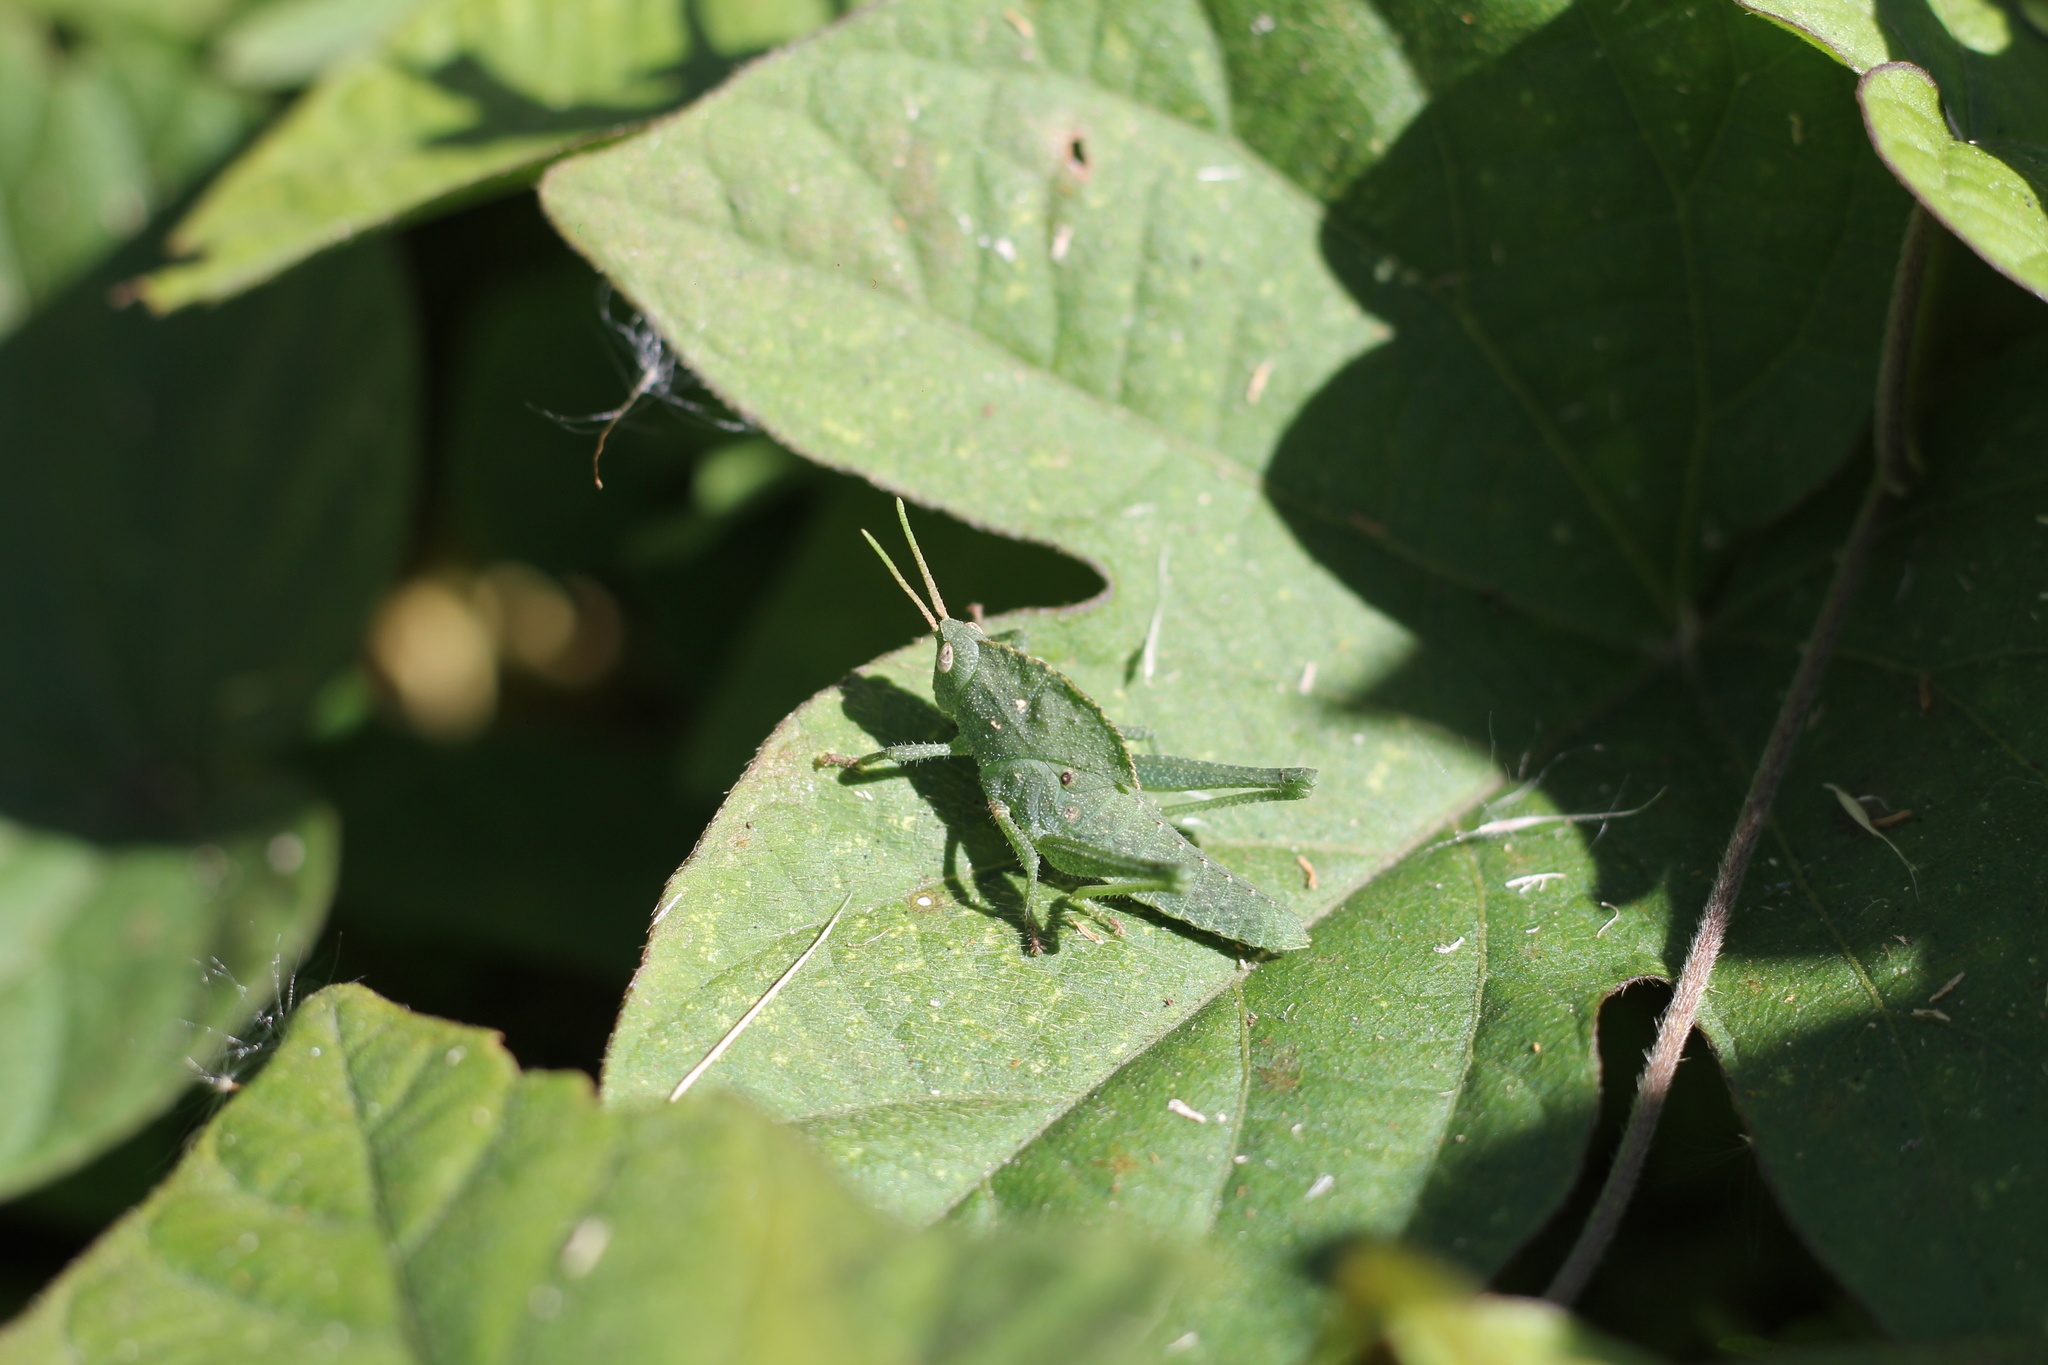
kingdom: Animalia
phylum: Arthropoda
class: Insecta
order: Orthoptera
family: Romaleidae
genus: Xyleus
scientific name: Xyleus discoideus
